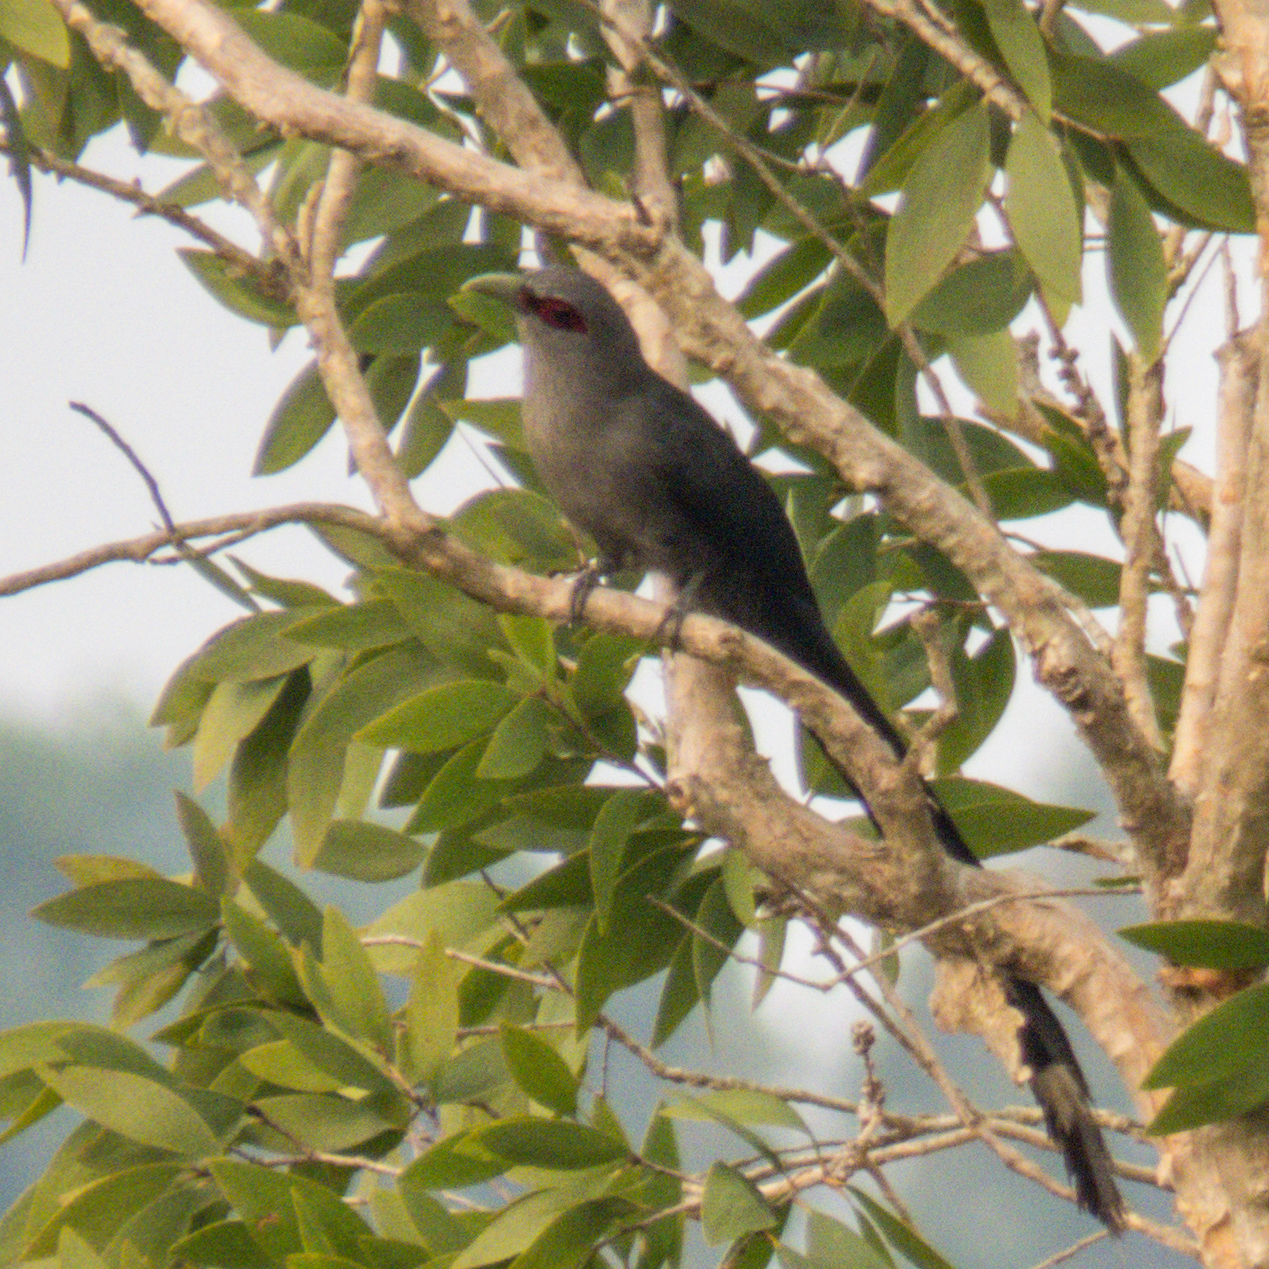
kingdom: Animalia
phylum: Chordata
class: Aves
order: Cuculiformes
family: Cuculidae
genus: Rhopodytes
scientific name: Rhopodytes tristis
